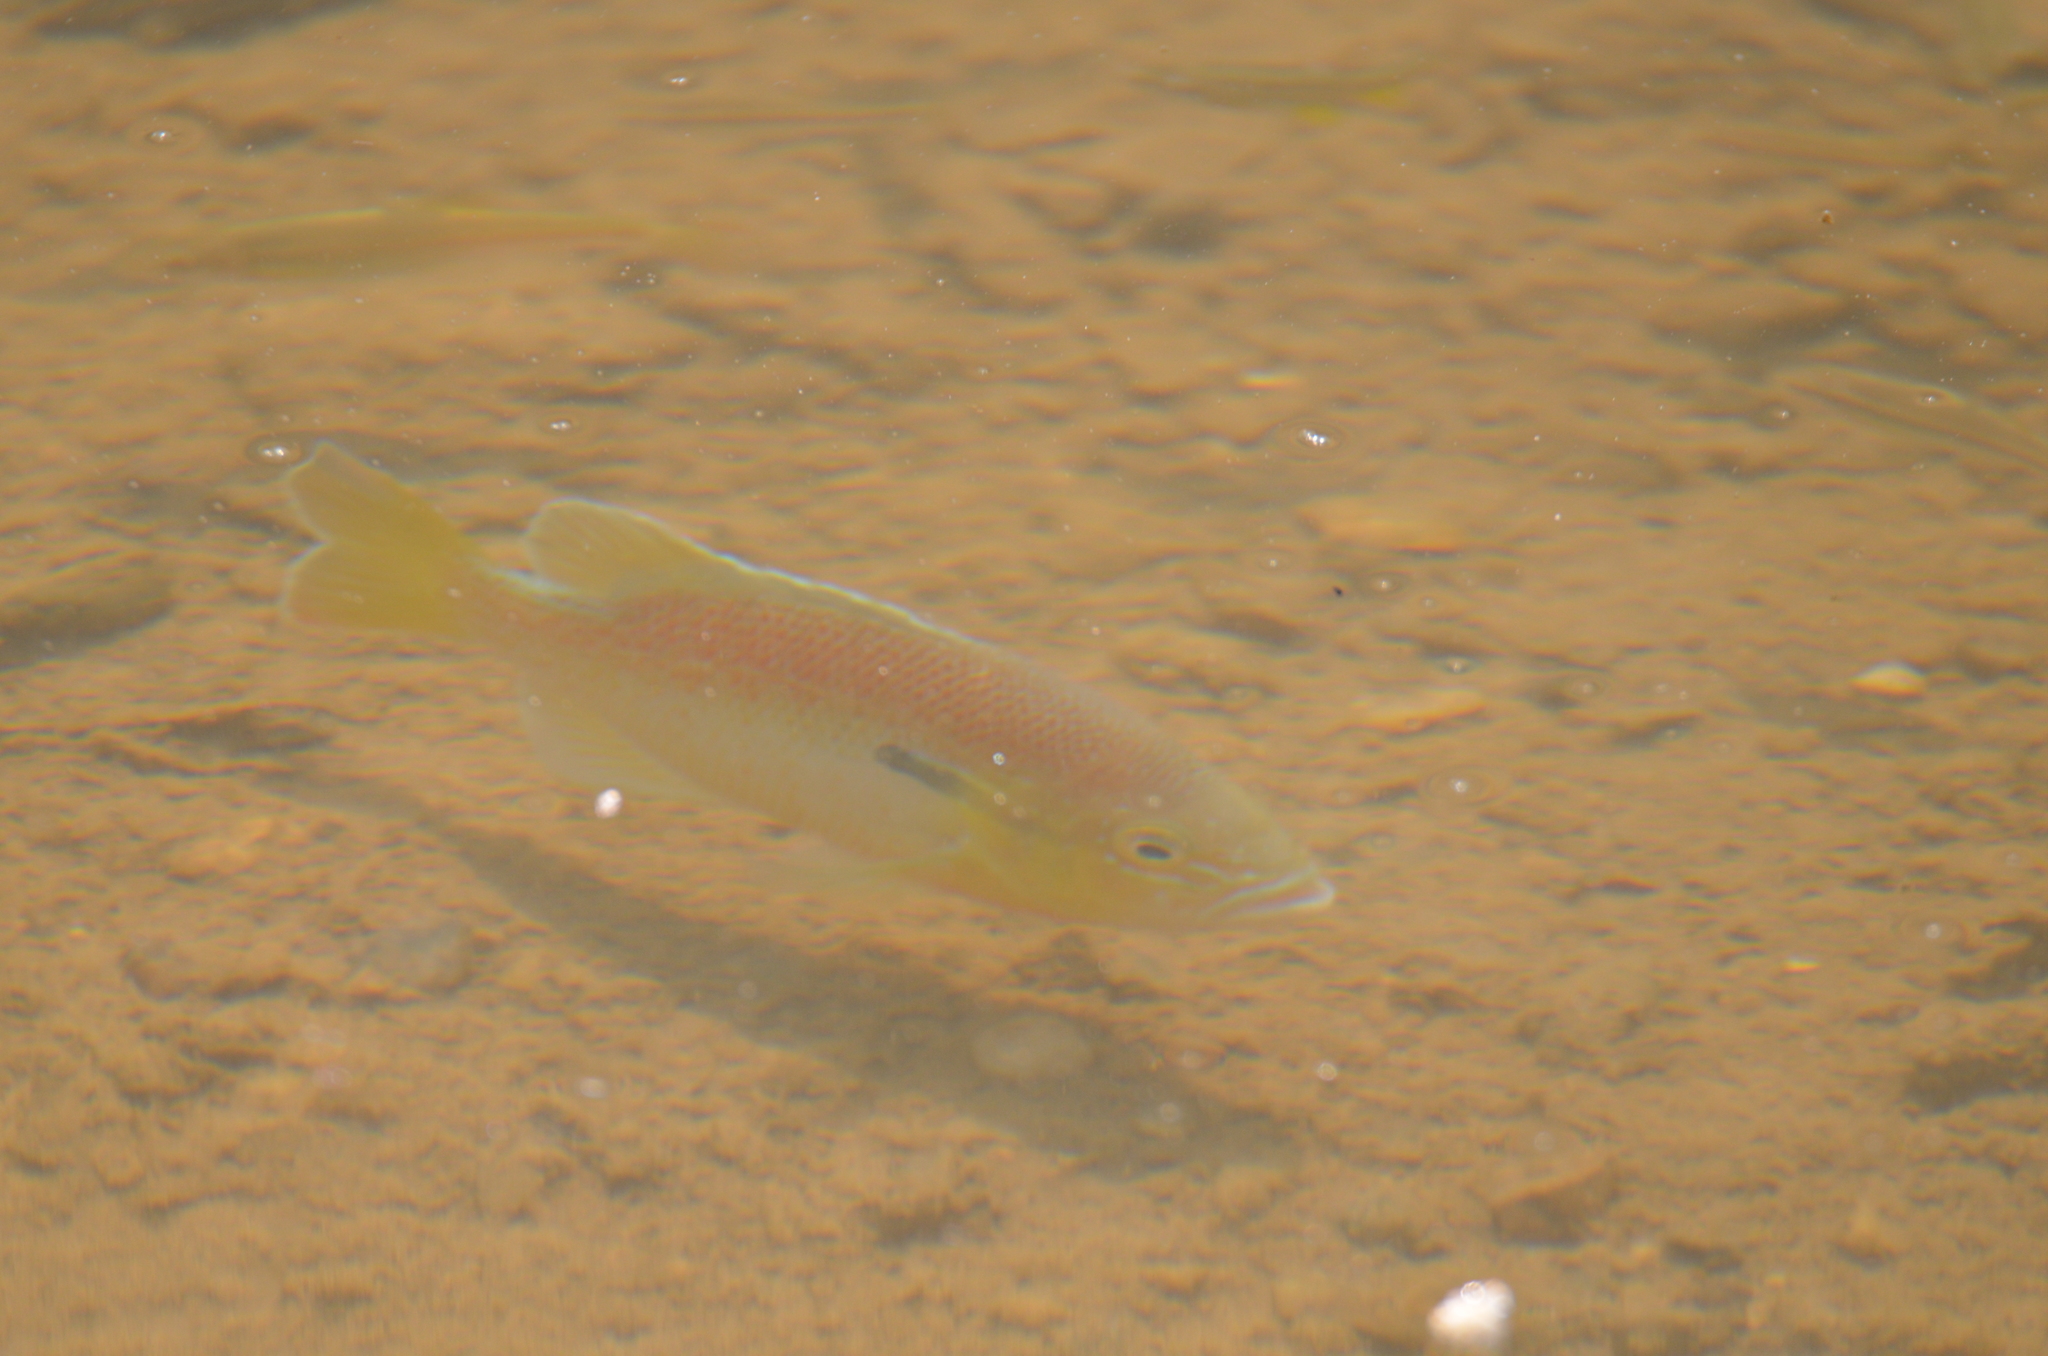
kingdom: Animalia
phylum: Chordata
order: Perciformes
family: Centrarchidae
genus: Lepomis
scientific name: Lepomis auritus
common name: Redbreast sunfish
